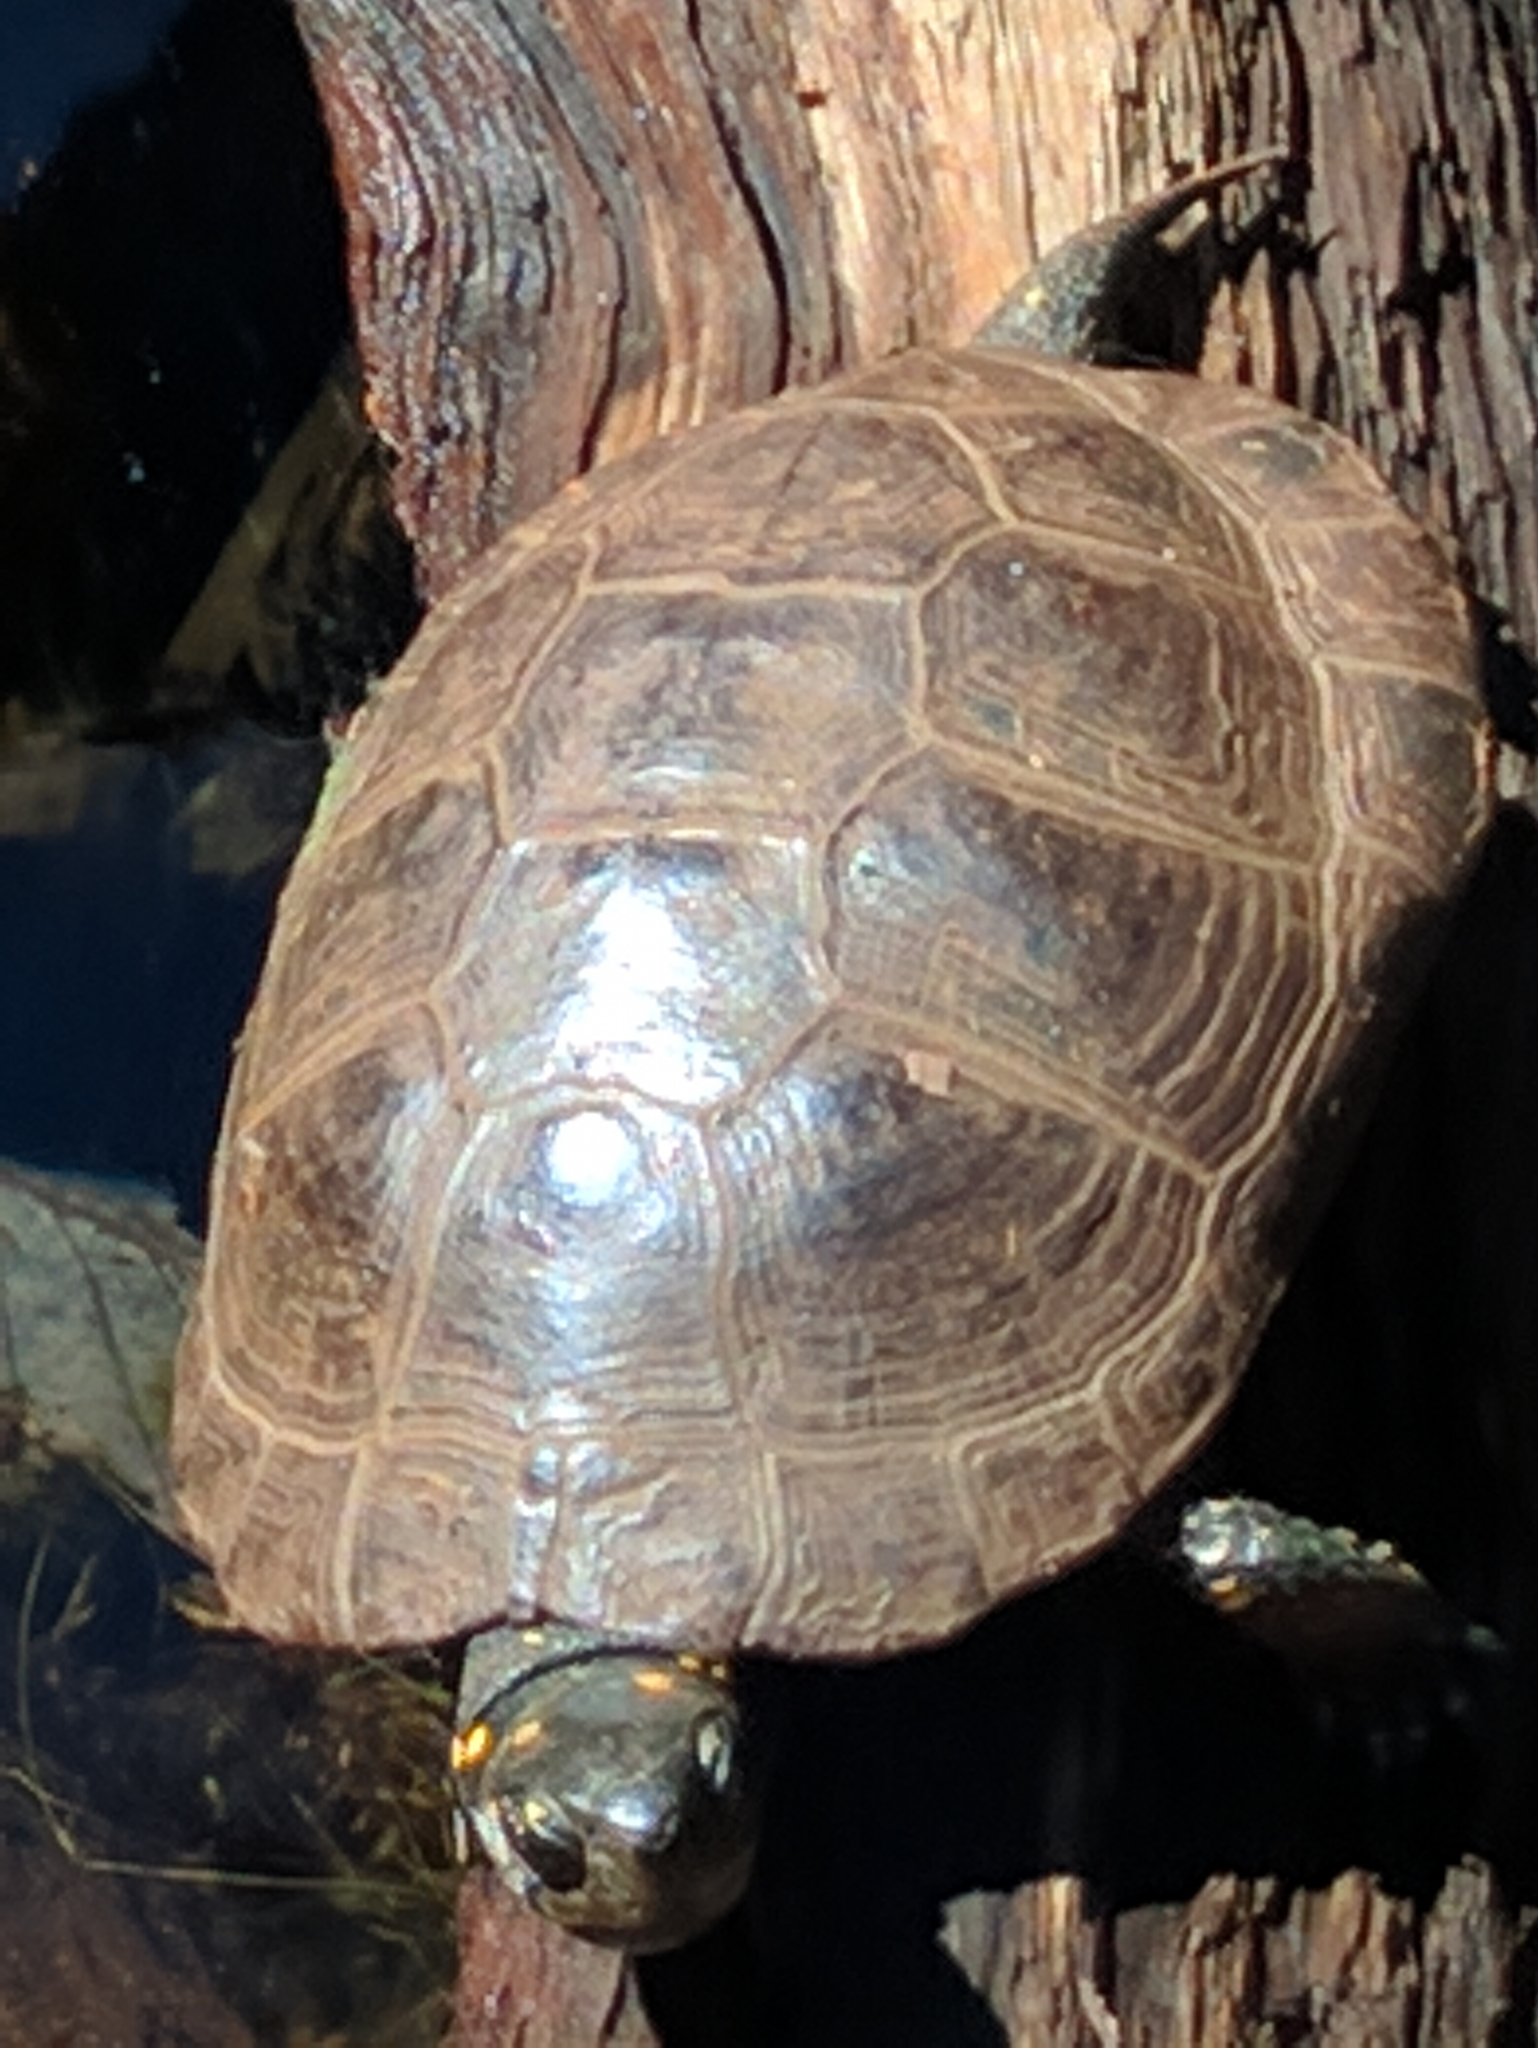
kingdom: Animalia
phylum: Chordata
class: Testudines
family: Emydidae
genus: Clemmys
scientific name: Clemmys guttata
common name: Spotted turtle
